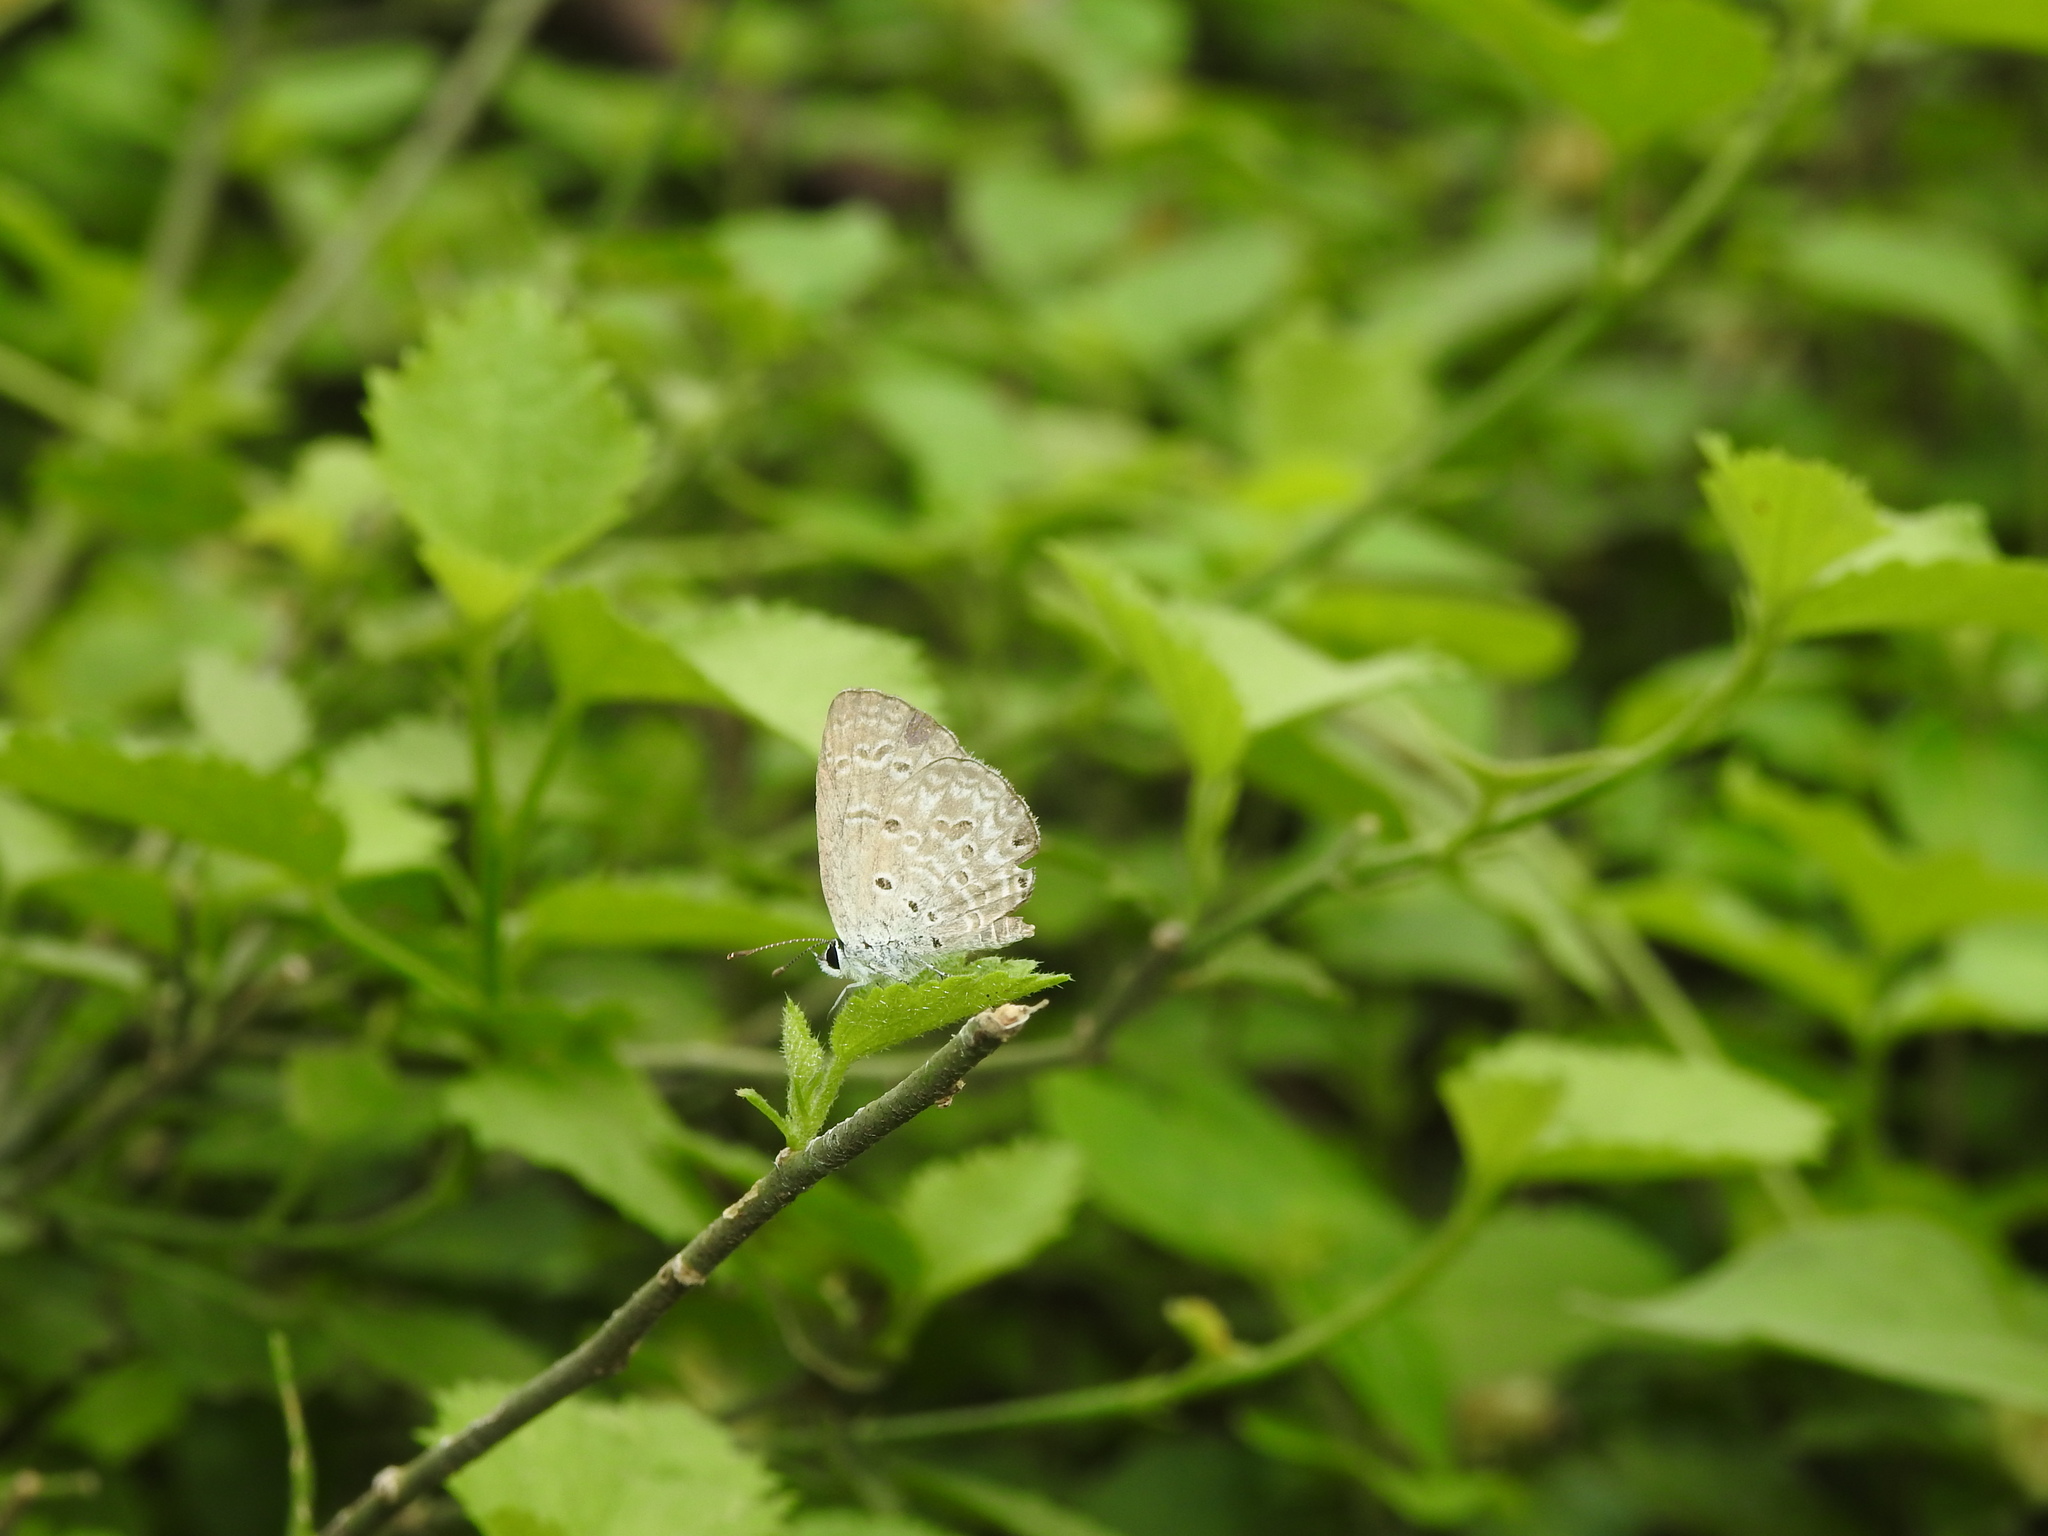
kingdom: Animalia
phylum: Arthropoda
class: Insecta
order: Lepidoptera
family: Lycaenidae
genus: Chilades
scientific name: Chilades laius
